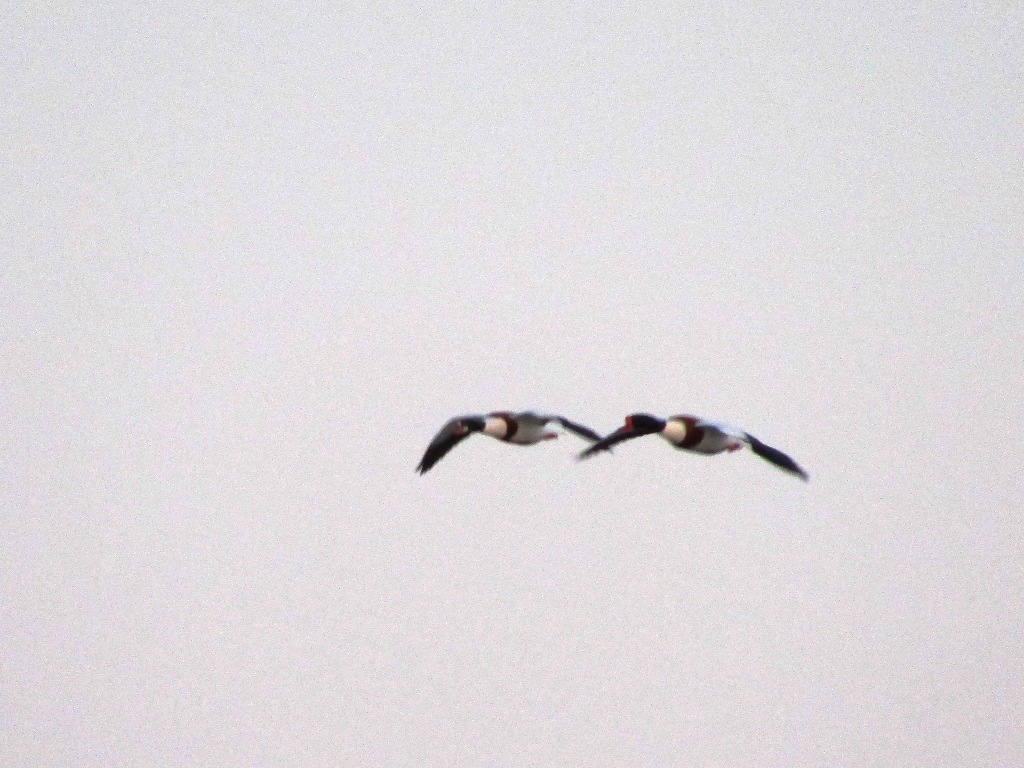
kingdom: Animalia
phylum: Chordata
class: Aves
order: Anseriformes
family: Anatidae
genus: Tadorna
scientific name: Tadorna tadorna
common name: Common shelduck
